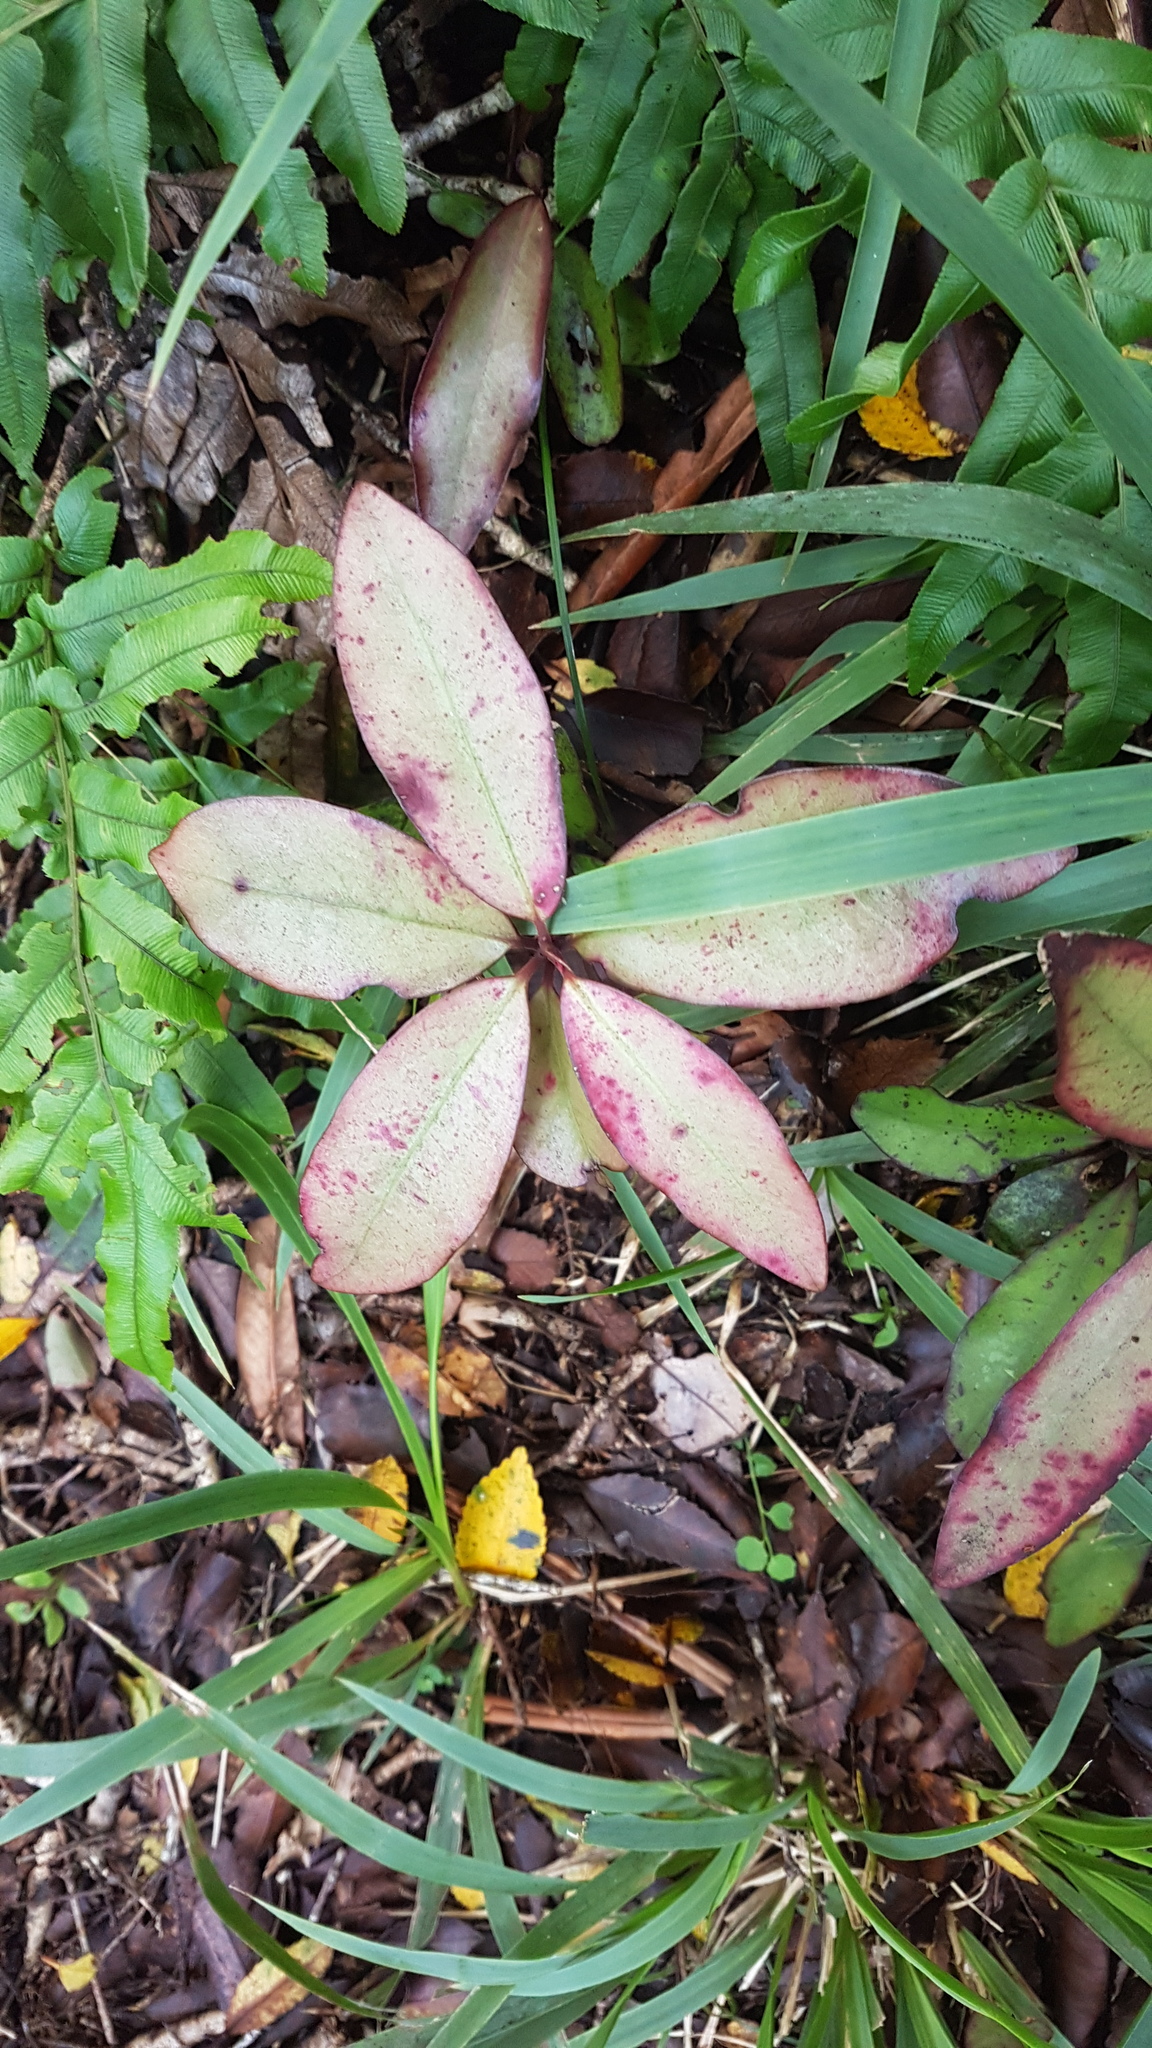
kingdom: Plantae
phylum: Tracheophyta
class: Magnoliopsida
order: Canellales
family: Winteraceae
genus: Pseudowintera
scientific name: Pseudowintera colorata
